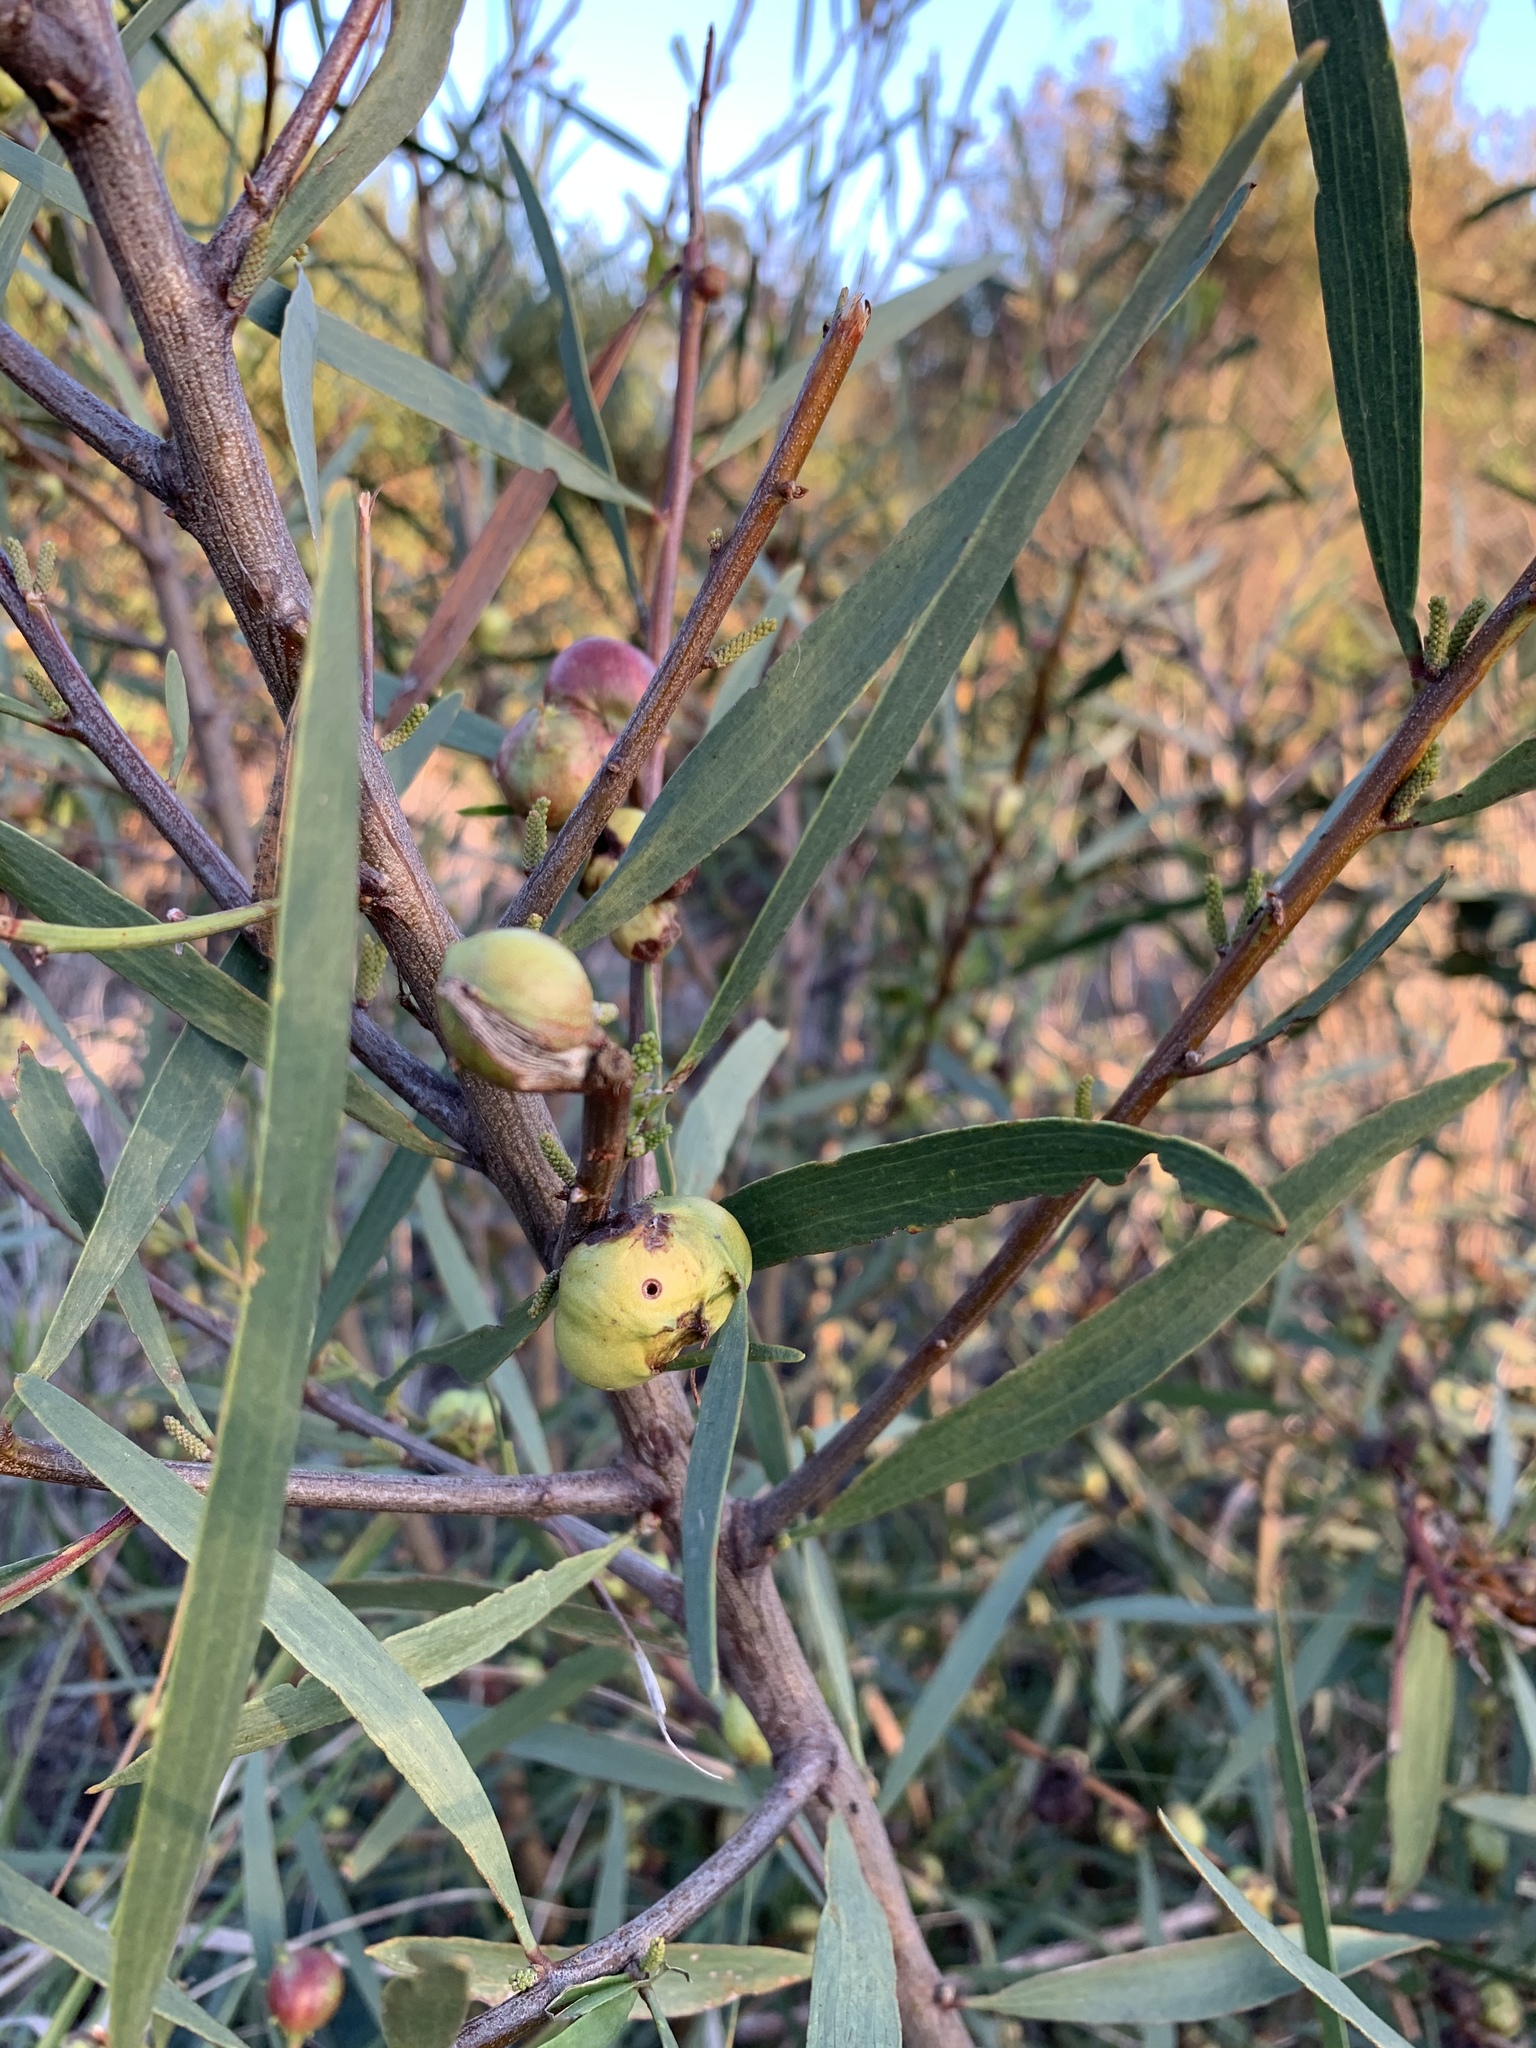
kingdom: Animalia
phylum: Arthropoda
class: Insecta
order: Hymenoptera
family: Pteromalidae
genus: Trichilogaster
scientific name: Trichilogaster acaciaelongifoliae
